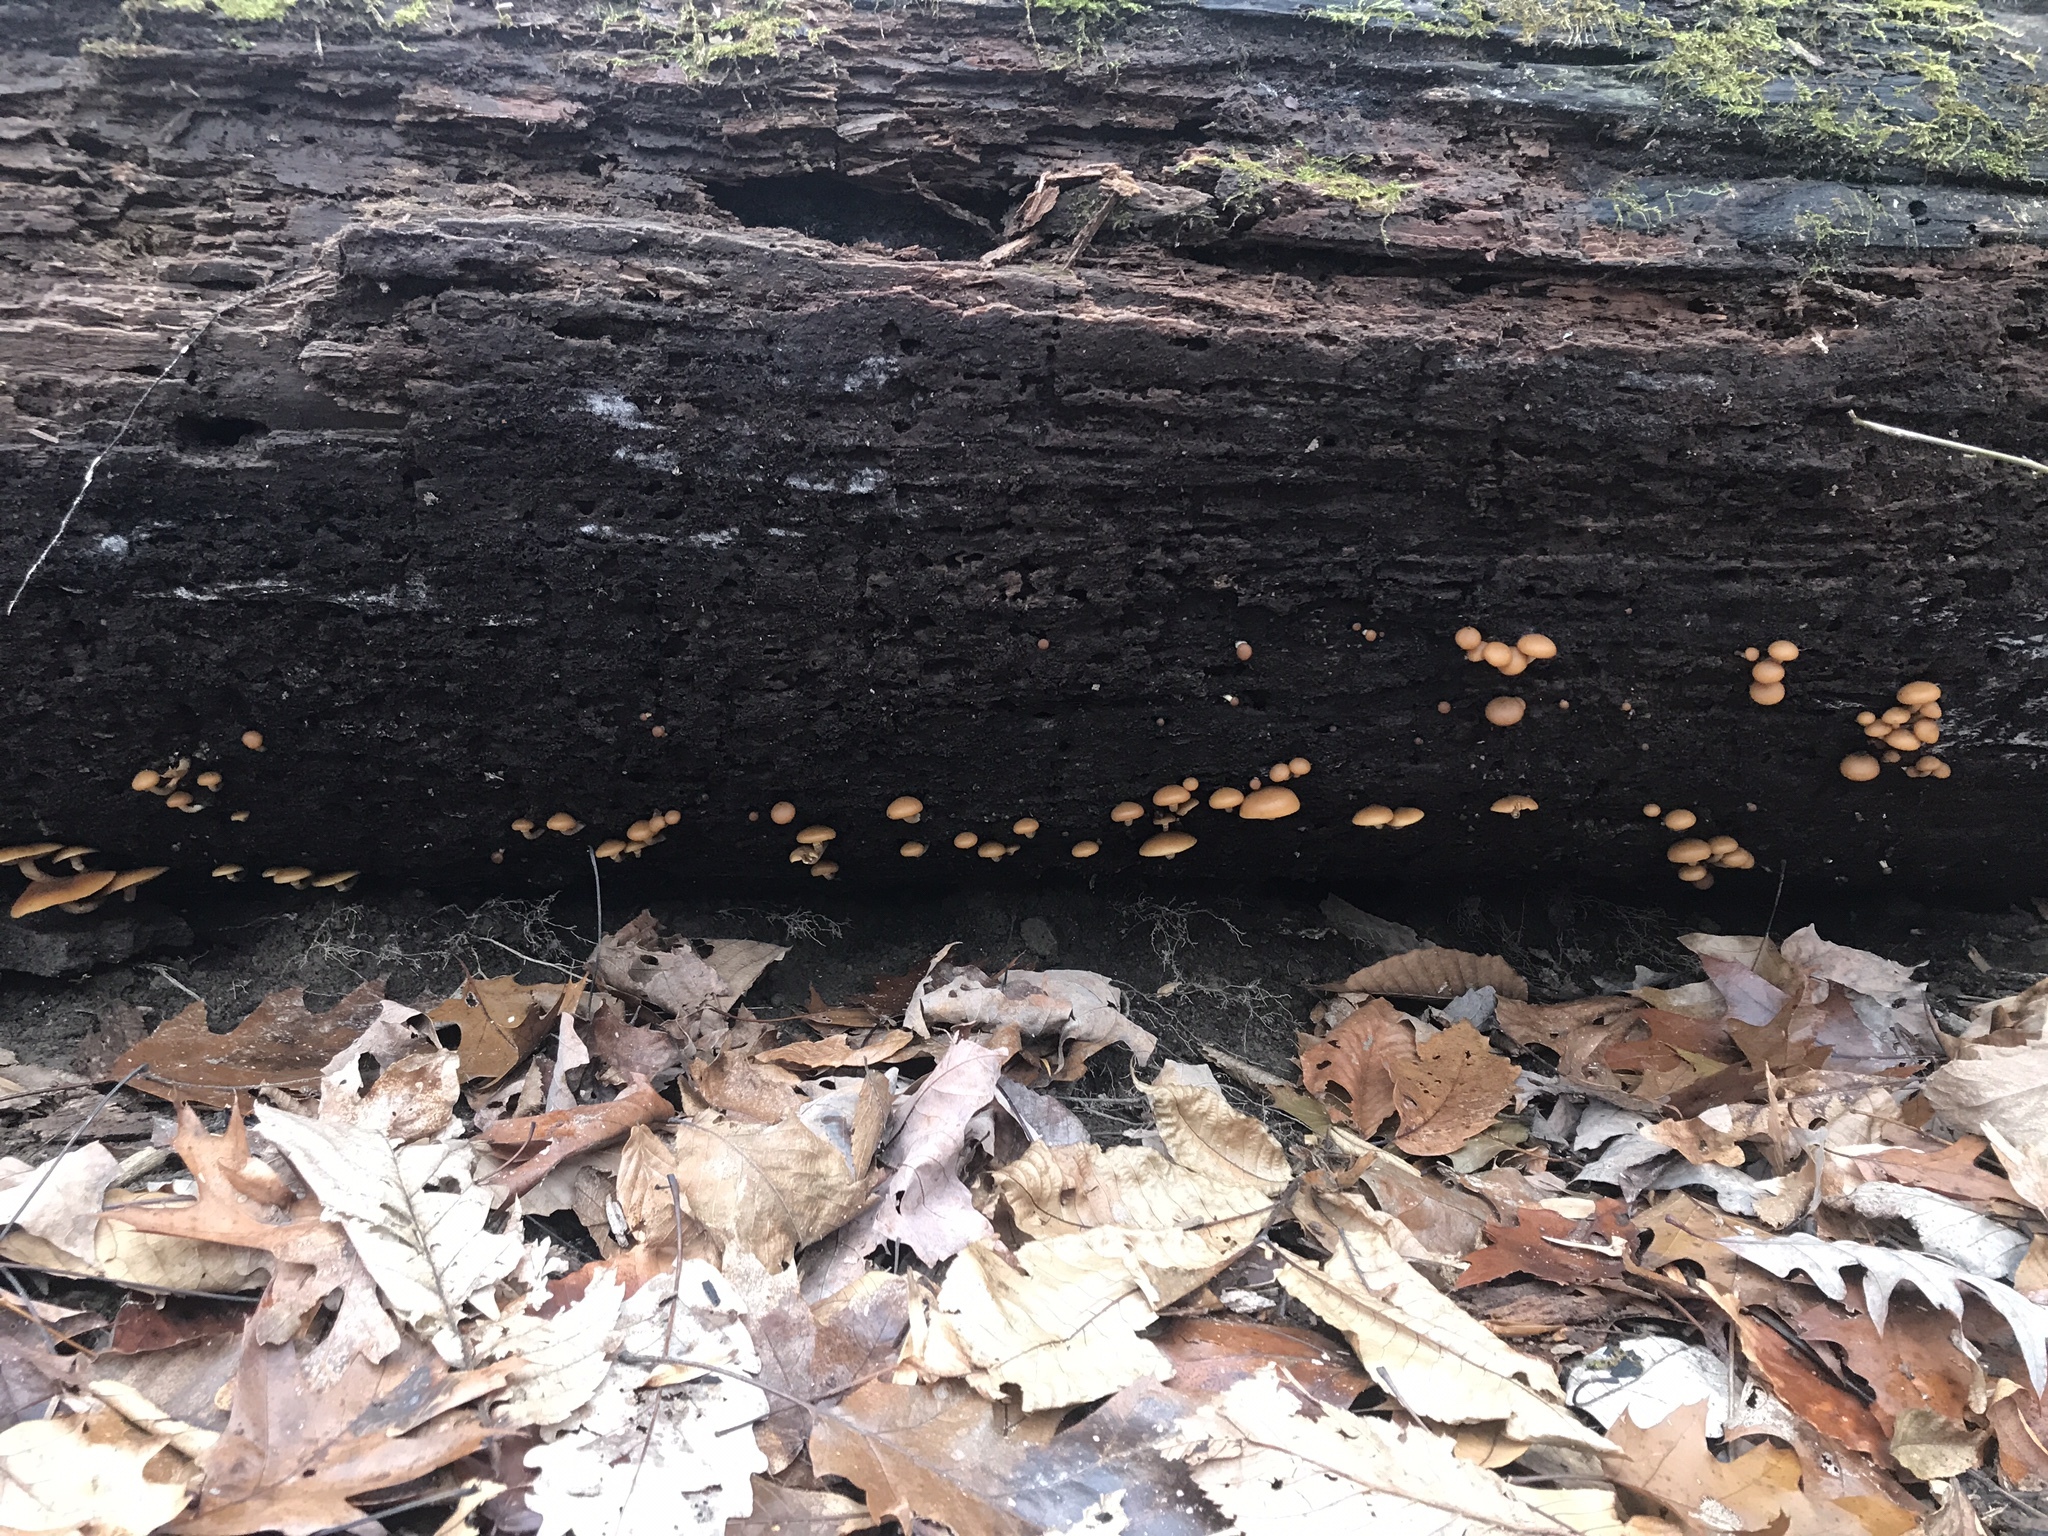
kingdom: Fungi
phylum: Basidiomycota
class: Agaricomycetes
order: Agaricales
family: Hymenogastraceae
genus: Galerina
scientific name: Galerina marginata
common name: Funeral bell
